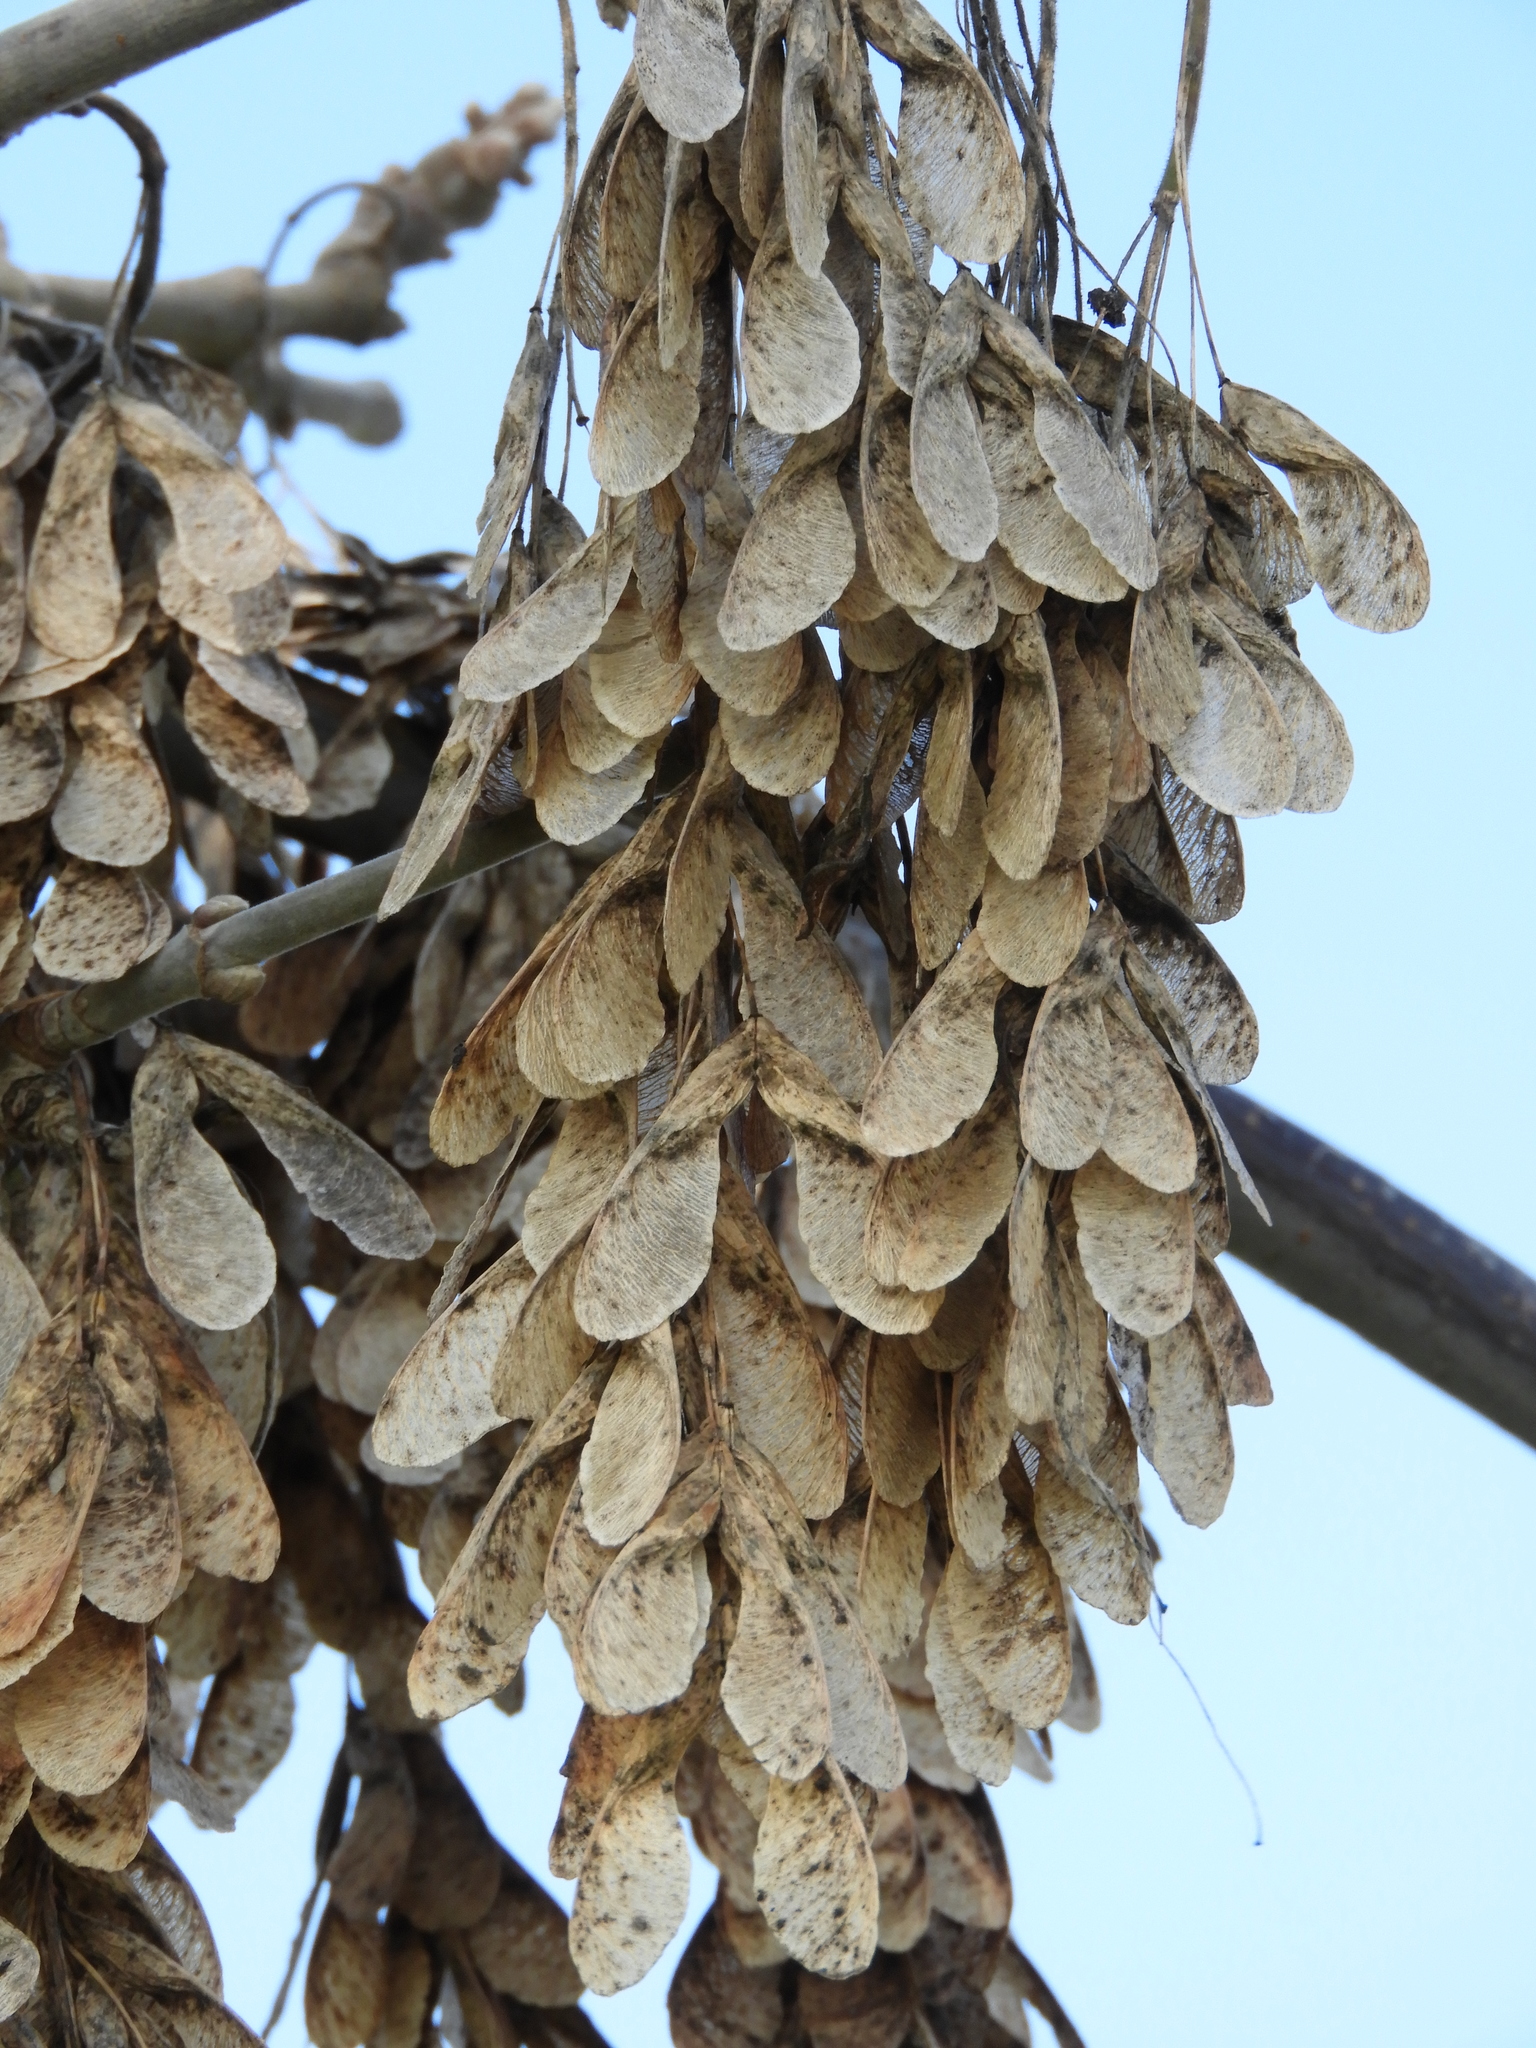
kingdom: Plantae
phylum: Tracheophyta
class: Magnoliopsida
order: Sapindales
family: Sapindaceae
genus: Acer
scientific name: Acer negundo
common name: Ashleaf maple
